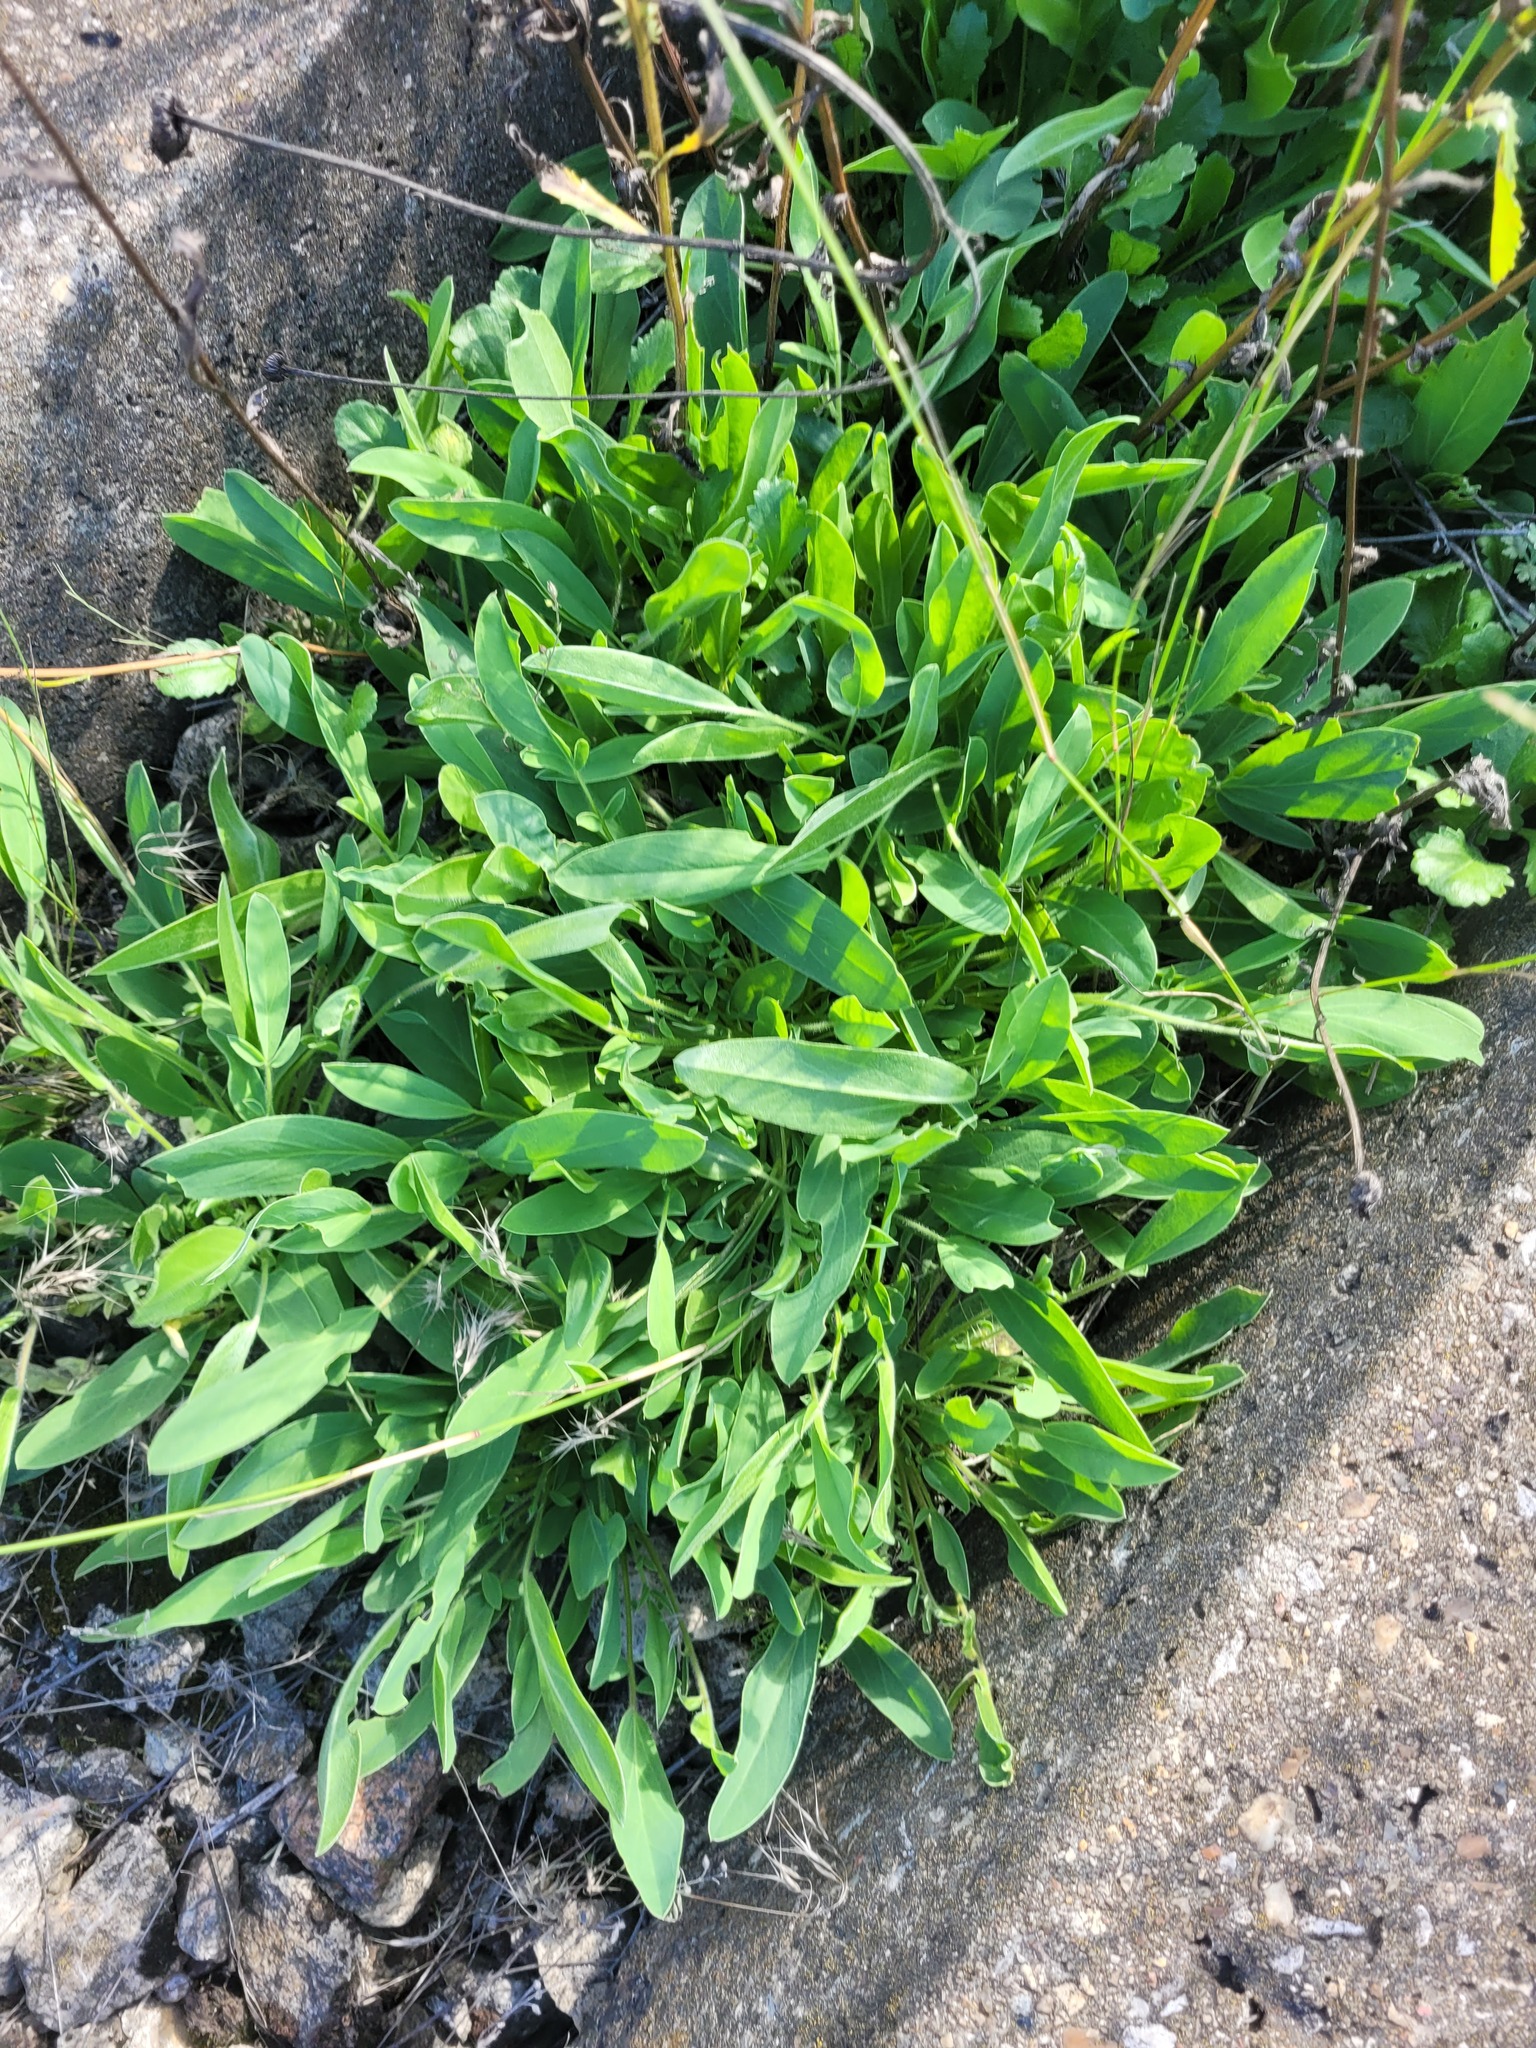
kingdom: Plantae
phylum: Tracheophyta
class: Magnoliopsida
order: Fabales
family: Fabaceae
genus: Anthyllis
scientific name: Anthyllis vulneraria
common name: Kidney vetch
